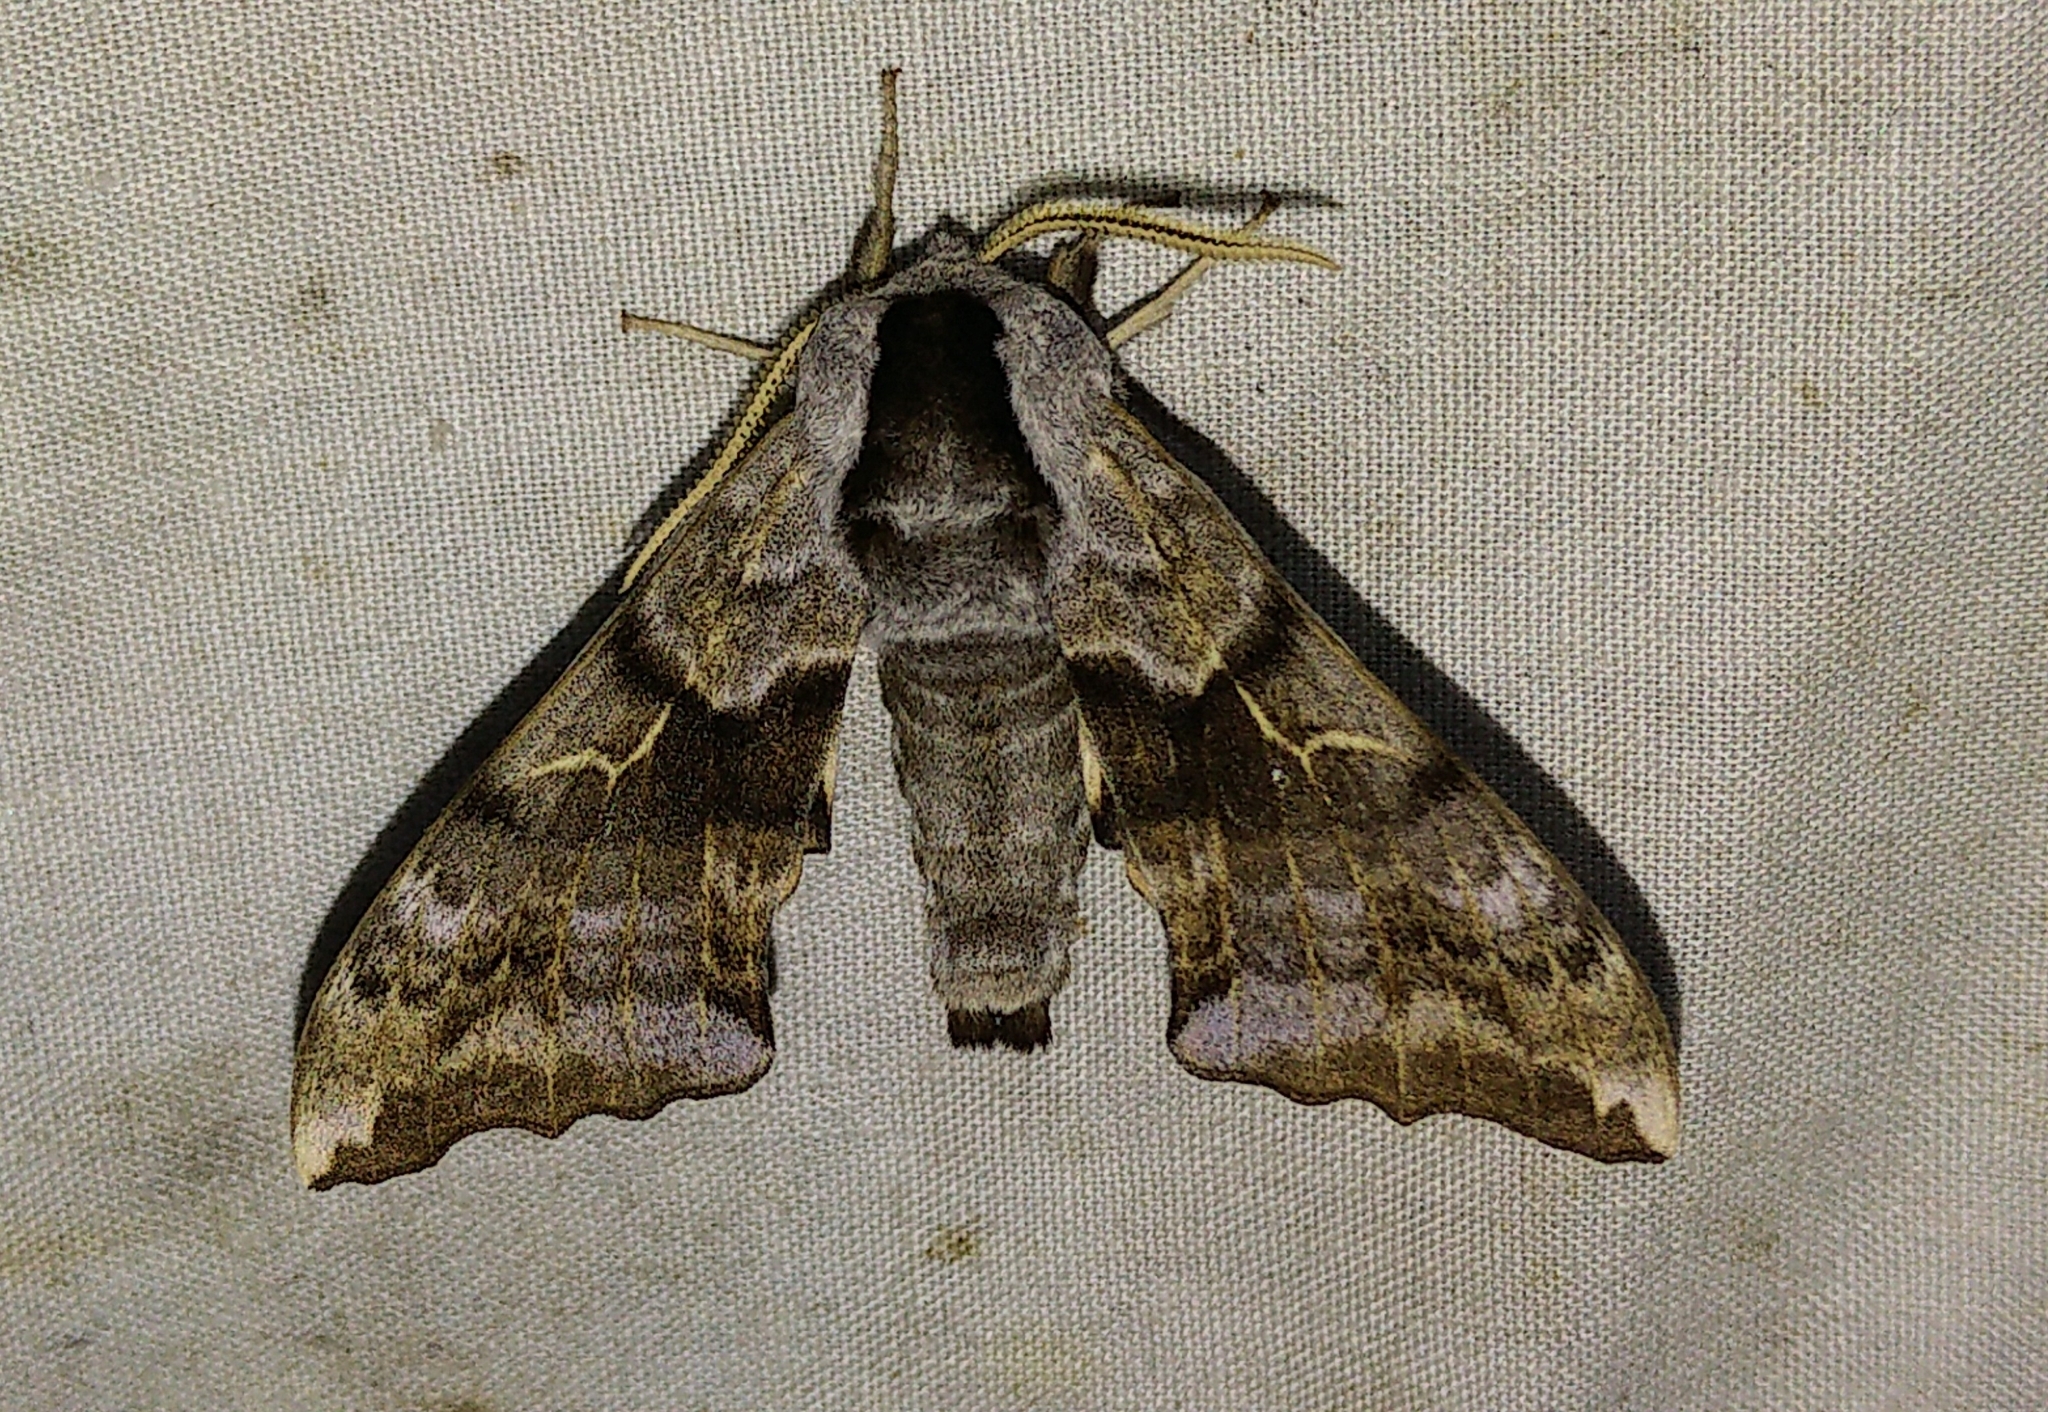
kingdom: Animalia
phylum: Arthropoda
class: Insecta
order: Lepidoptera
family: Sphingidae
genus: Smerinthus
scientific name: Smerinthus cerisyi
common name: Cerisy's sphinx moth
